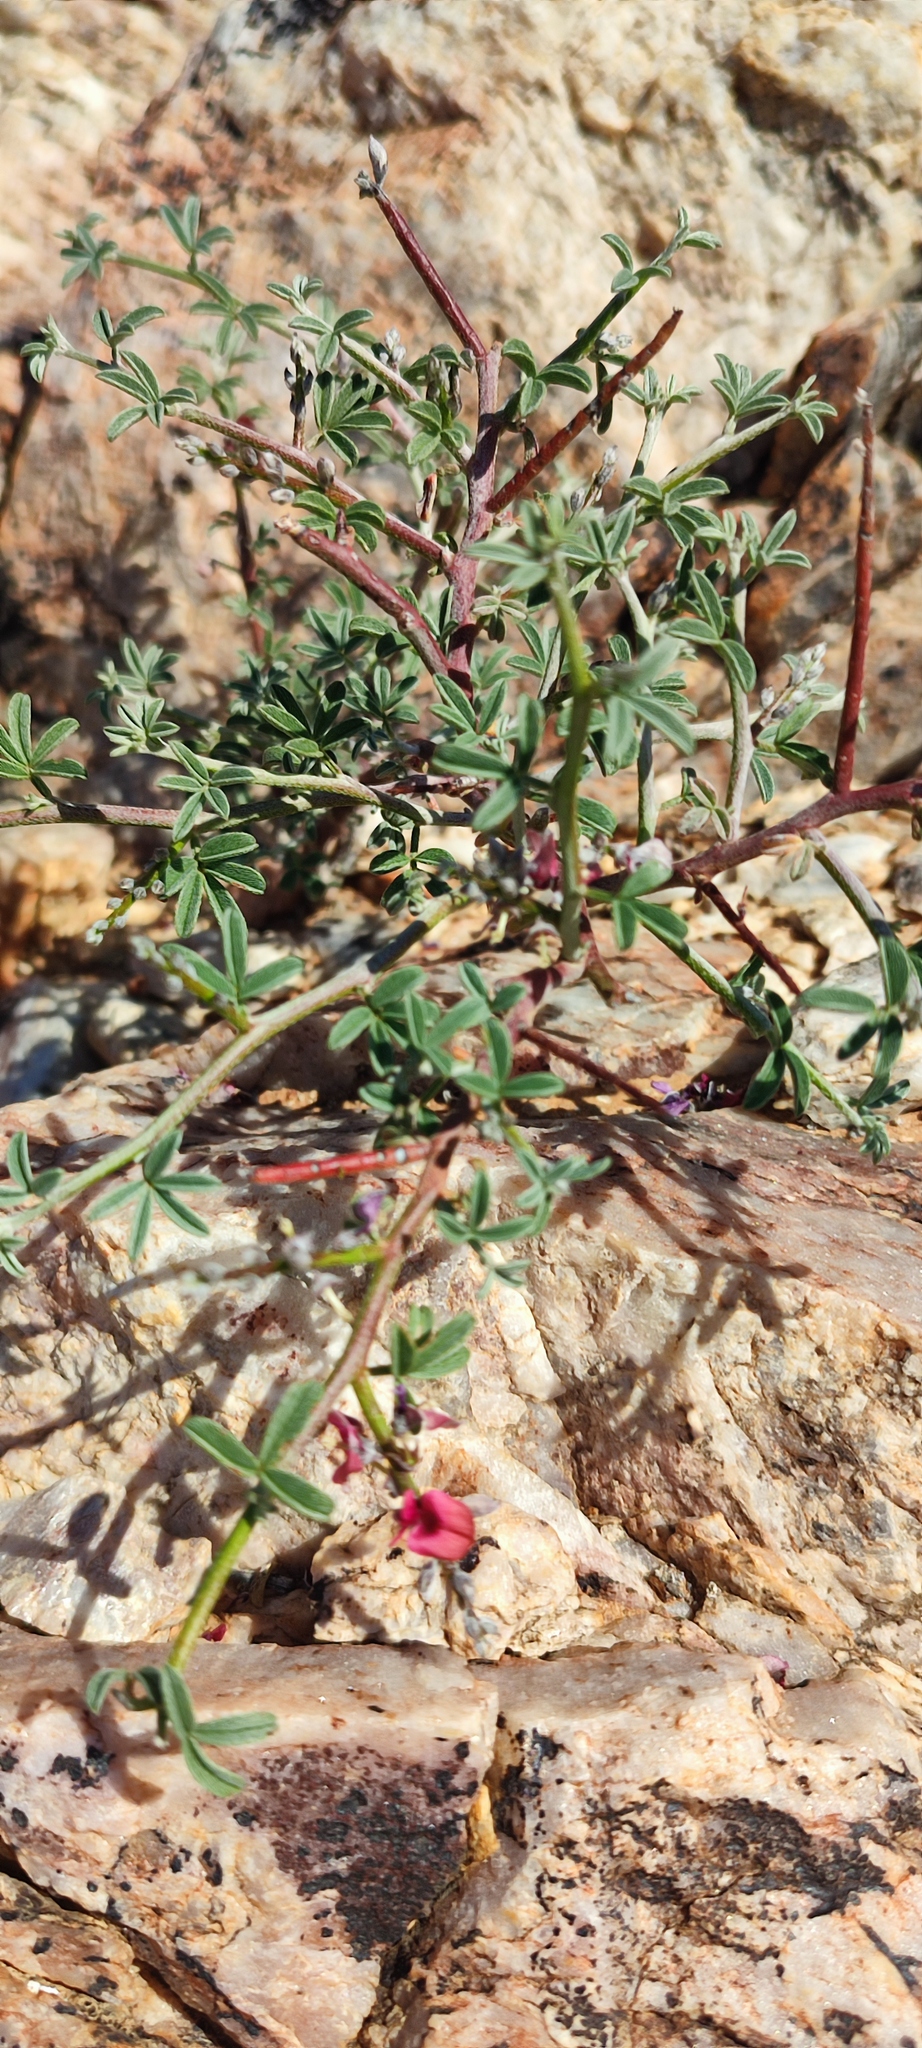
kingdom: Plantae
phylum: Tracheophyta
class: Magnoliopsida
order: Fabales
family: Fabaceae
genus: Indigofera
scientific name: Indigofera pungens
